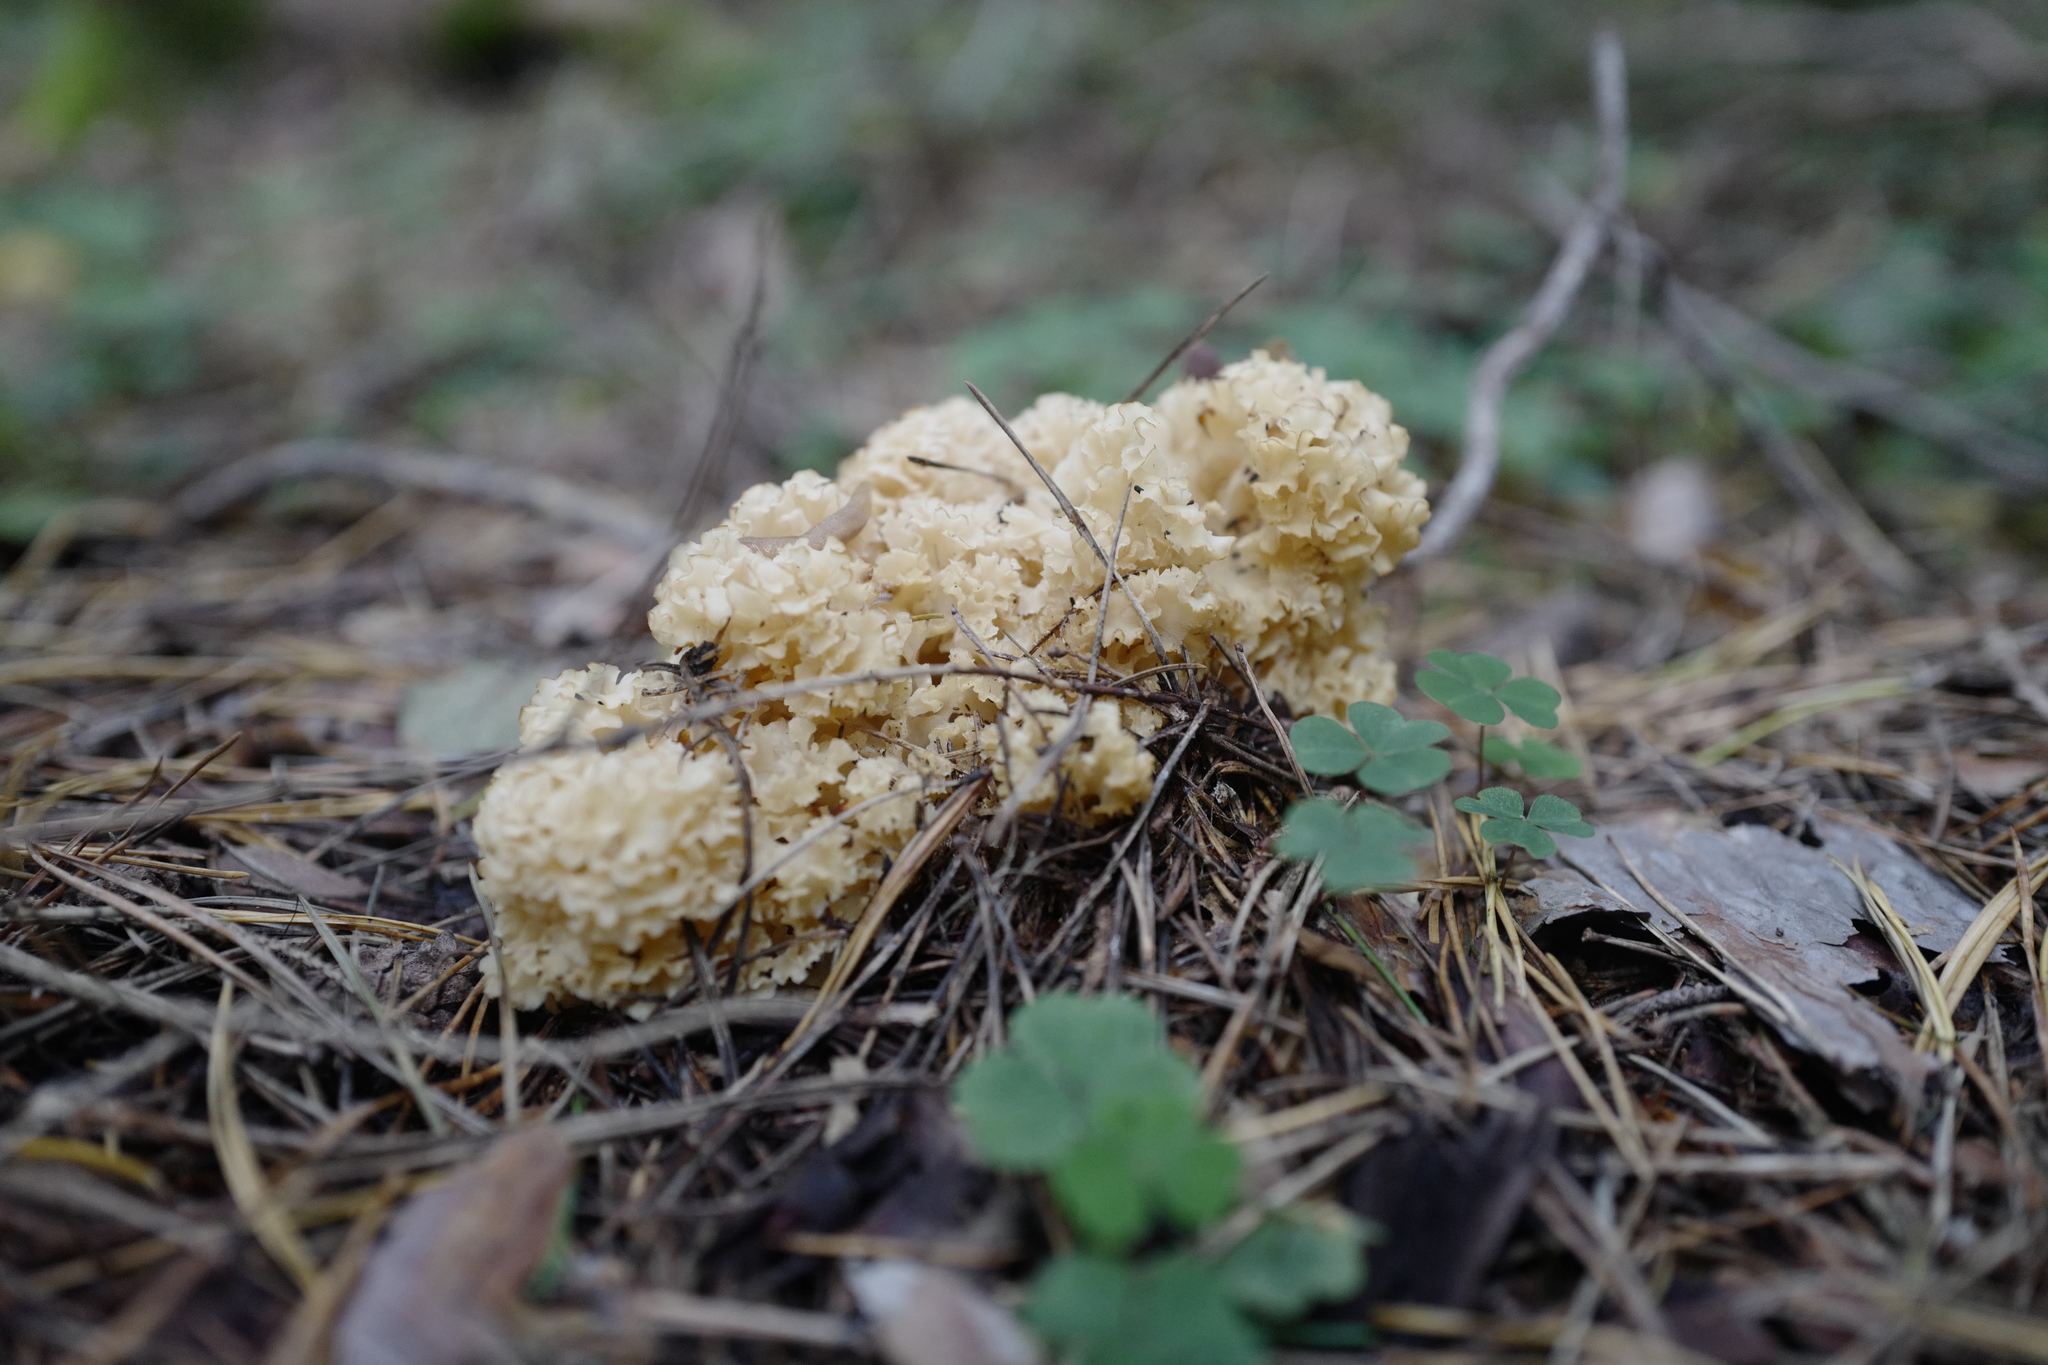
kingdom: Fungi
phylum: Basidiomycota
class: Agaricomycetes
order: Polyporales
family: Sparassidaceae
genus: Sparassis
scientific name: Sparassis crispa
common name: Brain fungus
